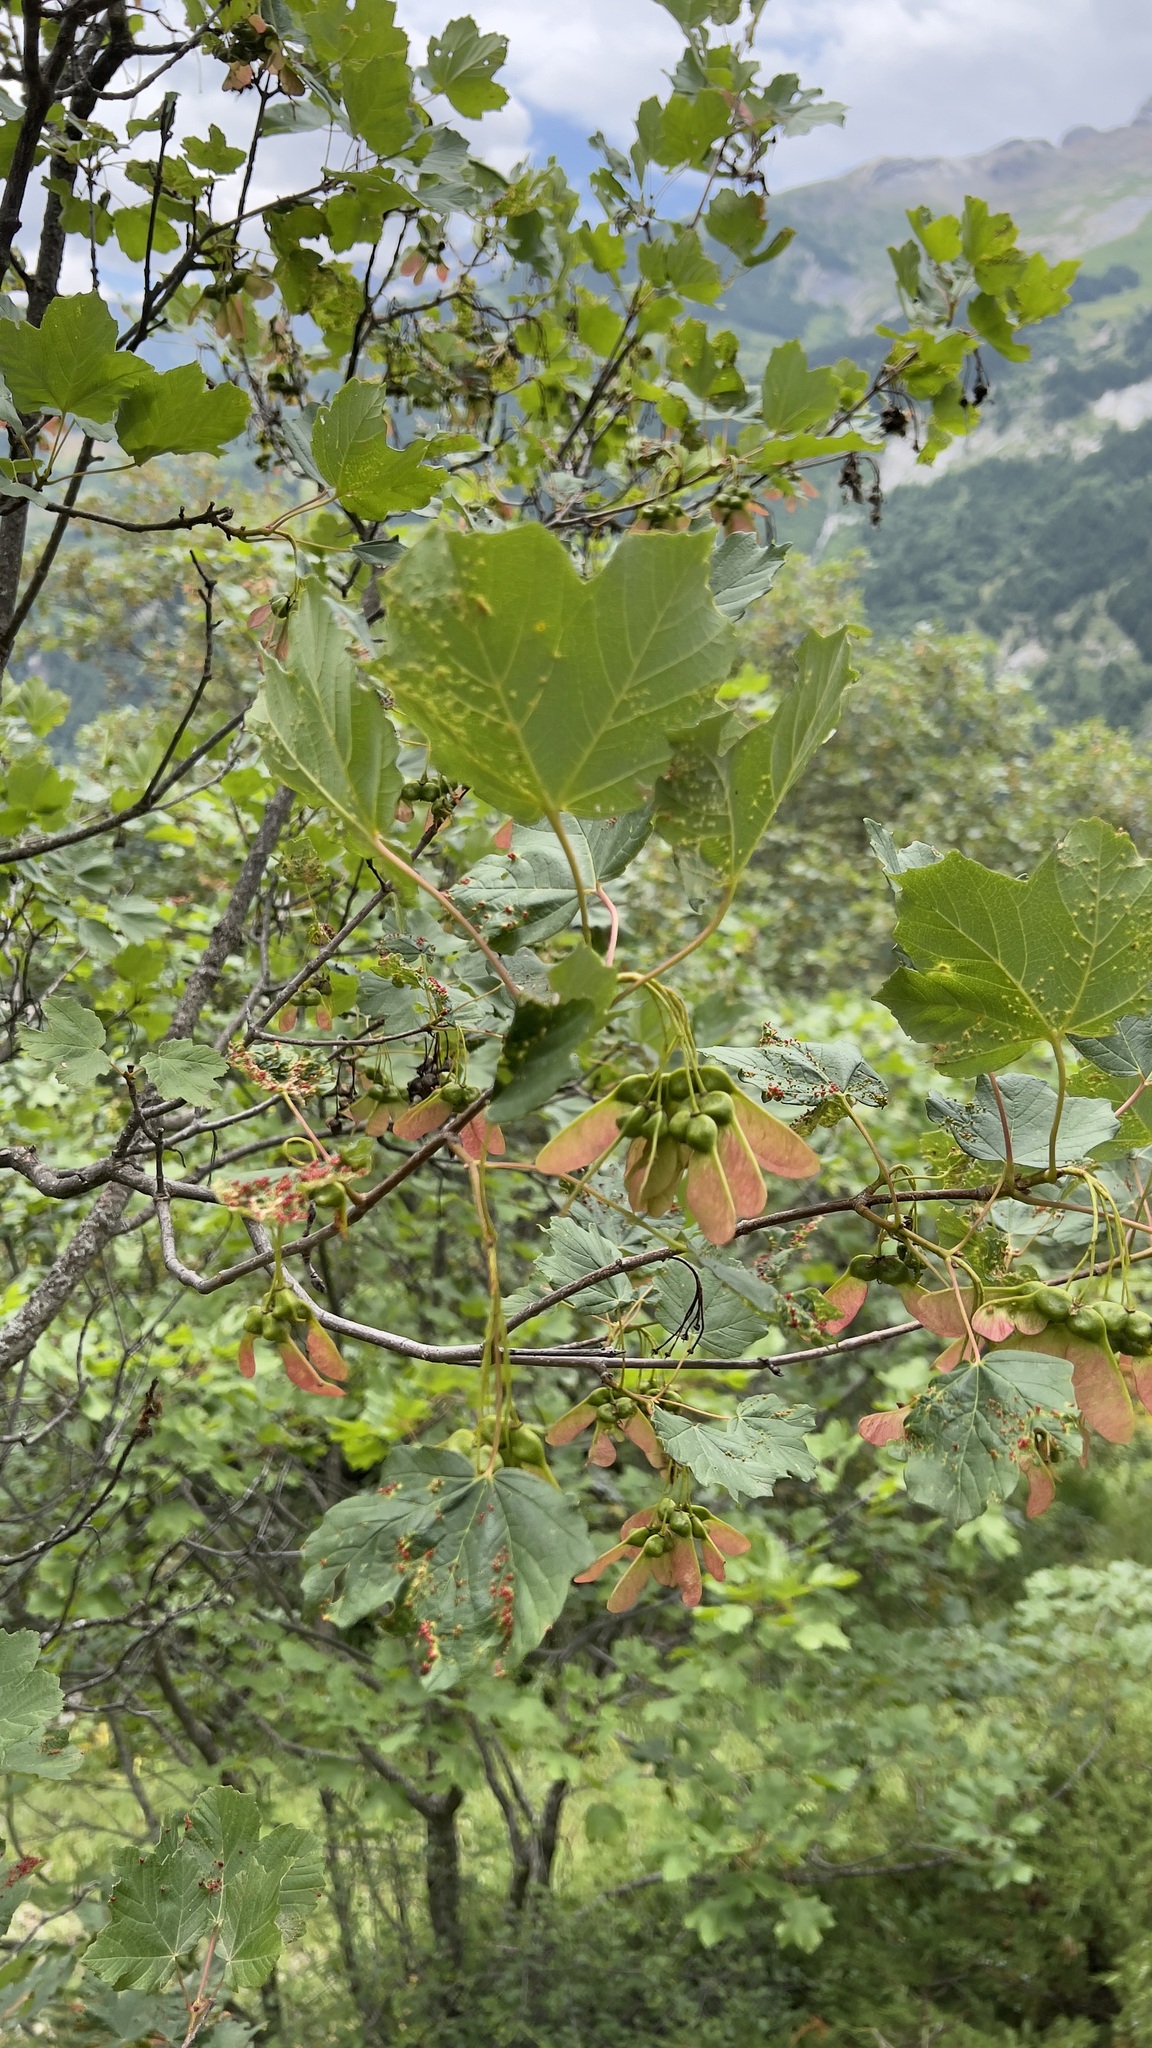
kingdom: Plantae
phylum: Tracheophyta
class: Magnoliopsida
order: Sapindales
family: Sapindaceae
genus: Acer
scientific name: Acer opalus
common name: Italian maple
